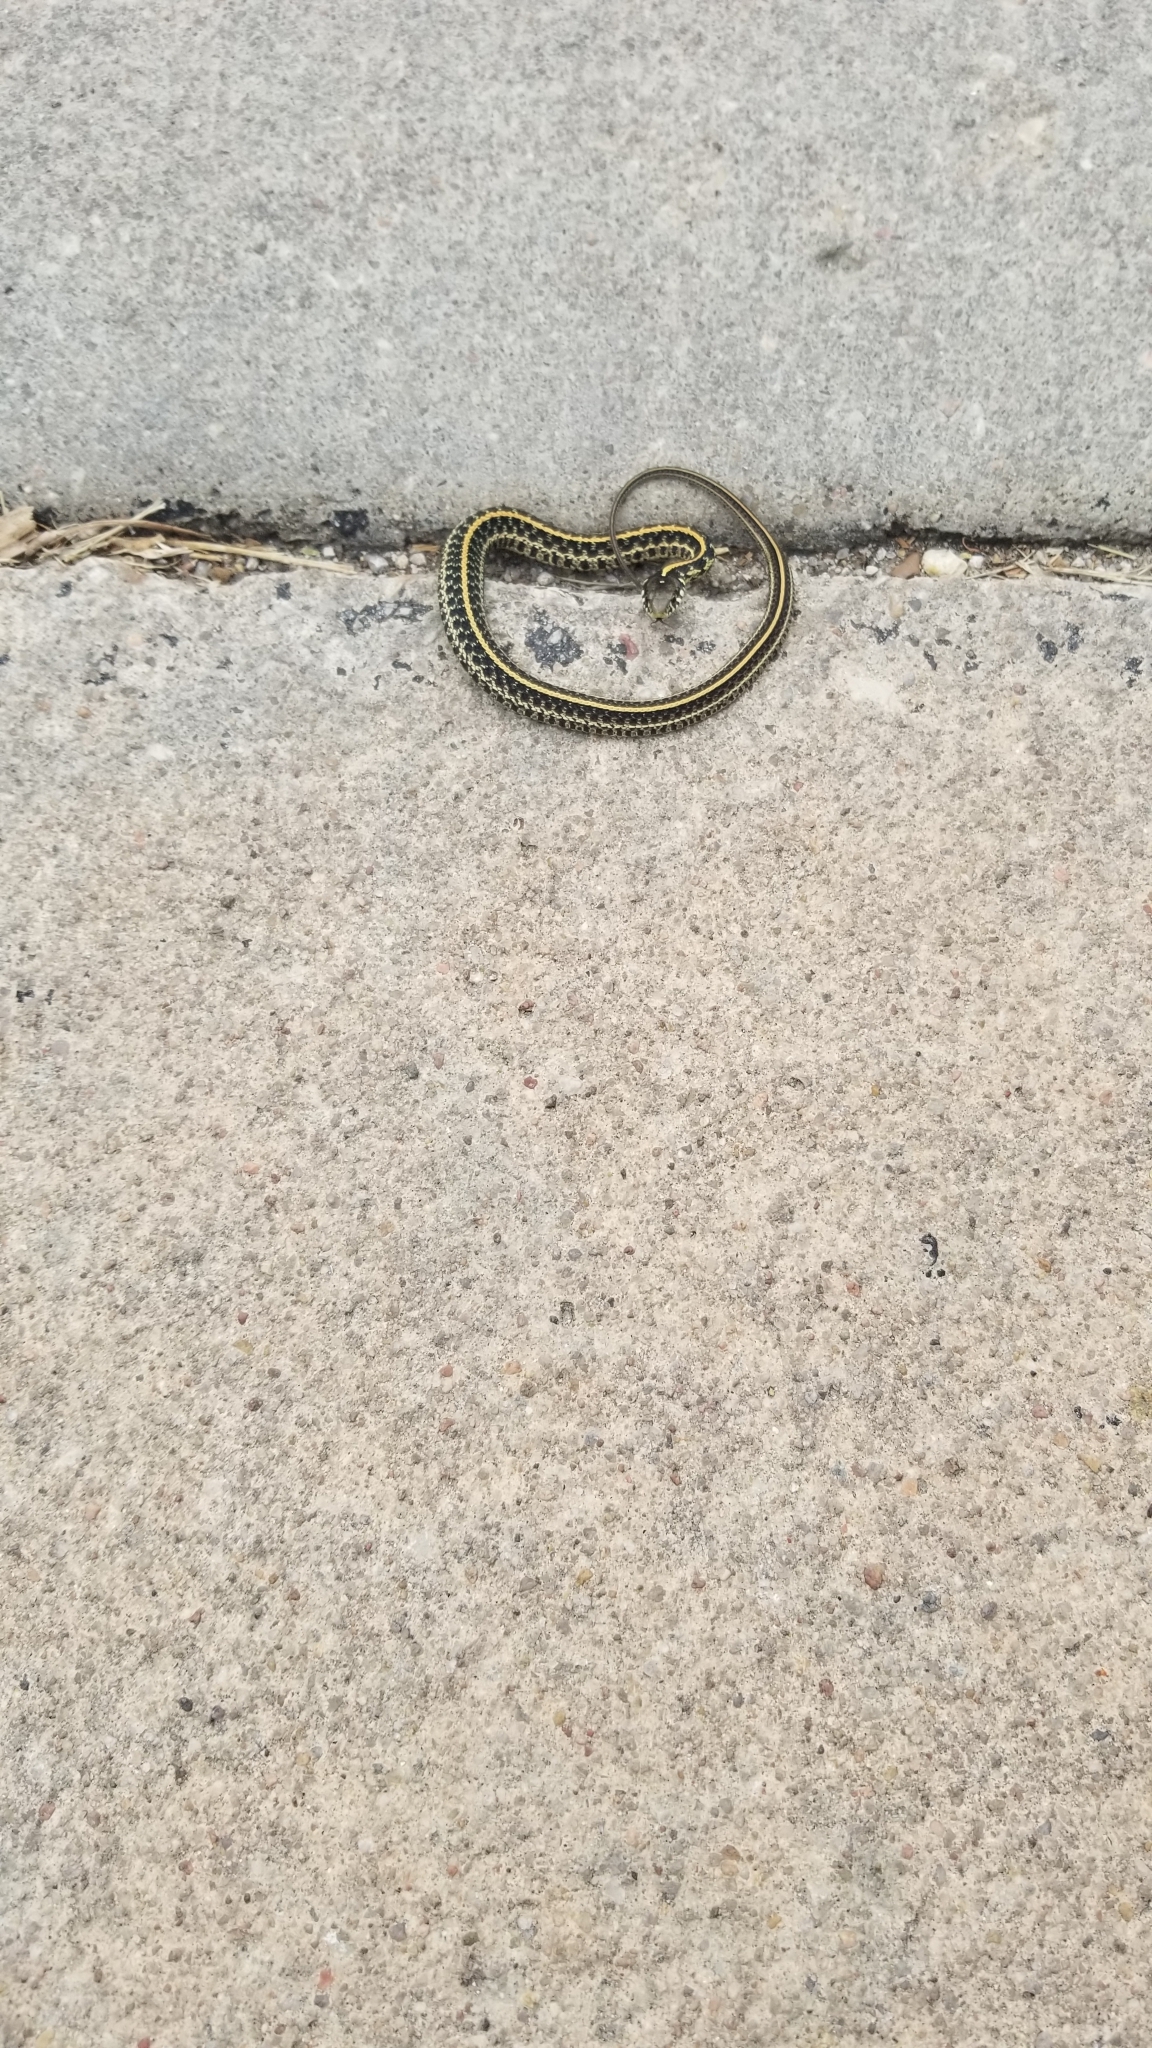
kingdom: Animalia
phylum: Chordata
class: Squamata
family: Colubridae
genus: Thamnophis
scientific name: Thamnophis radix
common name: Plains garter snake
